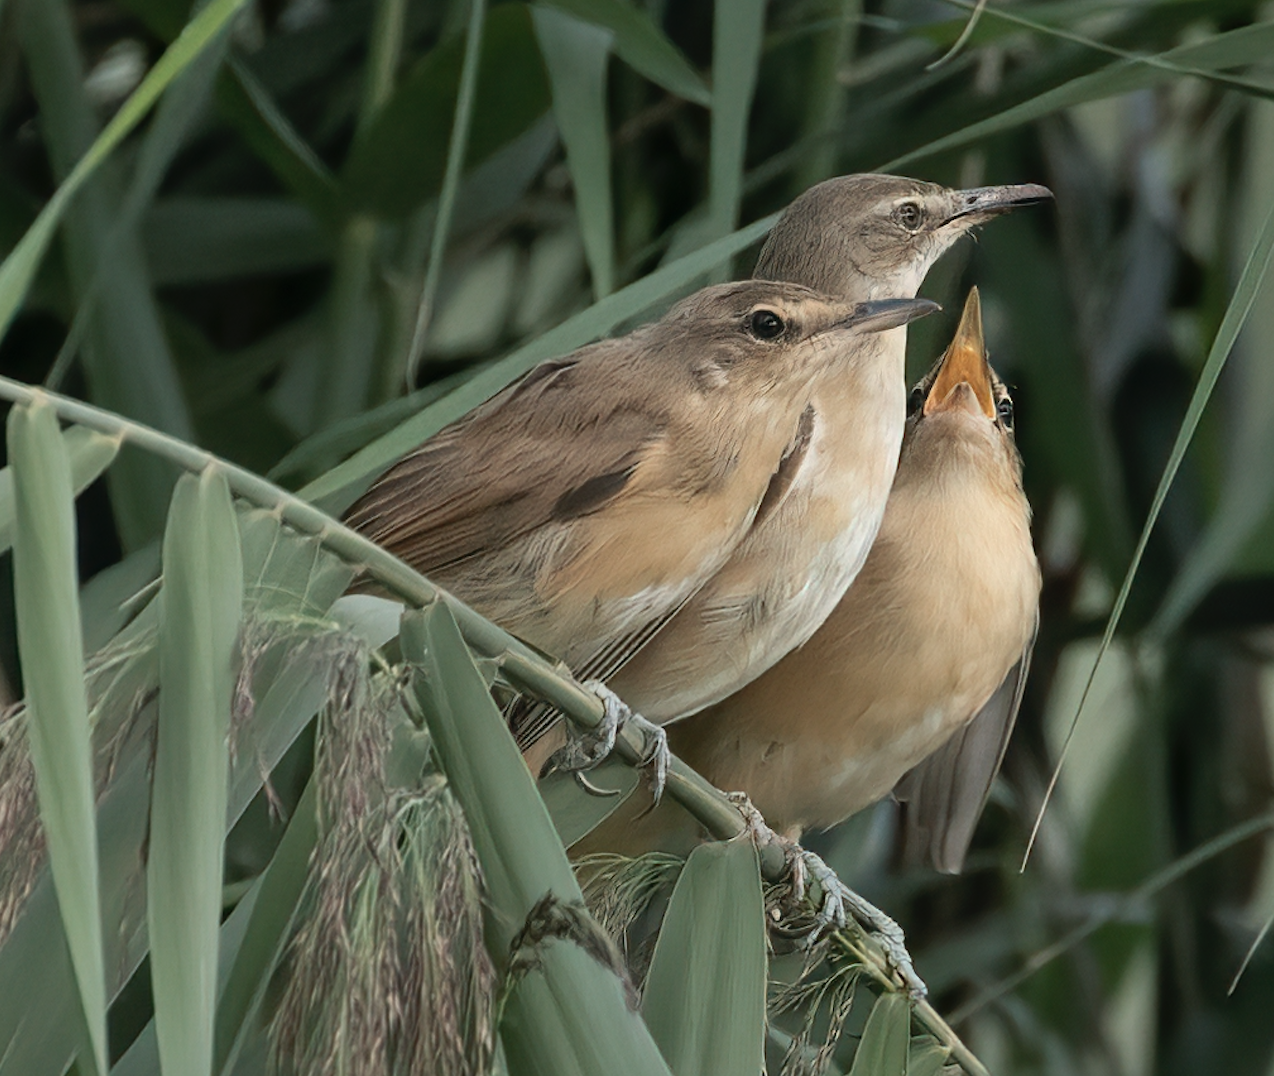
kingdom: Animalia
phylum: Chordata
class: Aves
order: Passeriformes
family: Acrocephalidae
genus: Acrocephalus
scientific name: Acrocephalus arundinaceus
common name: Great reed warbler
